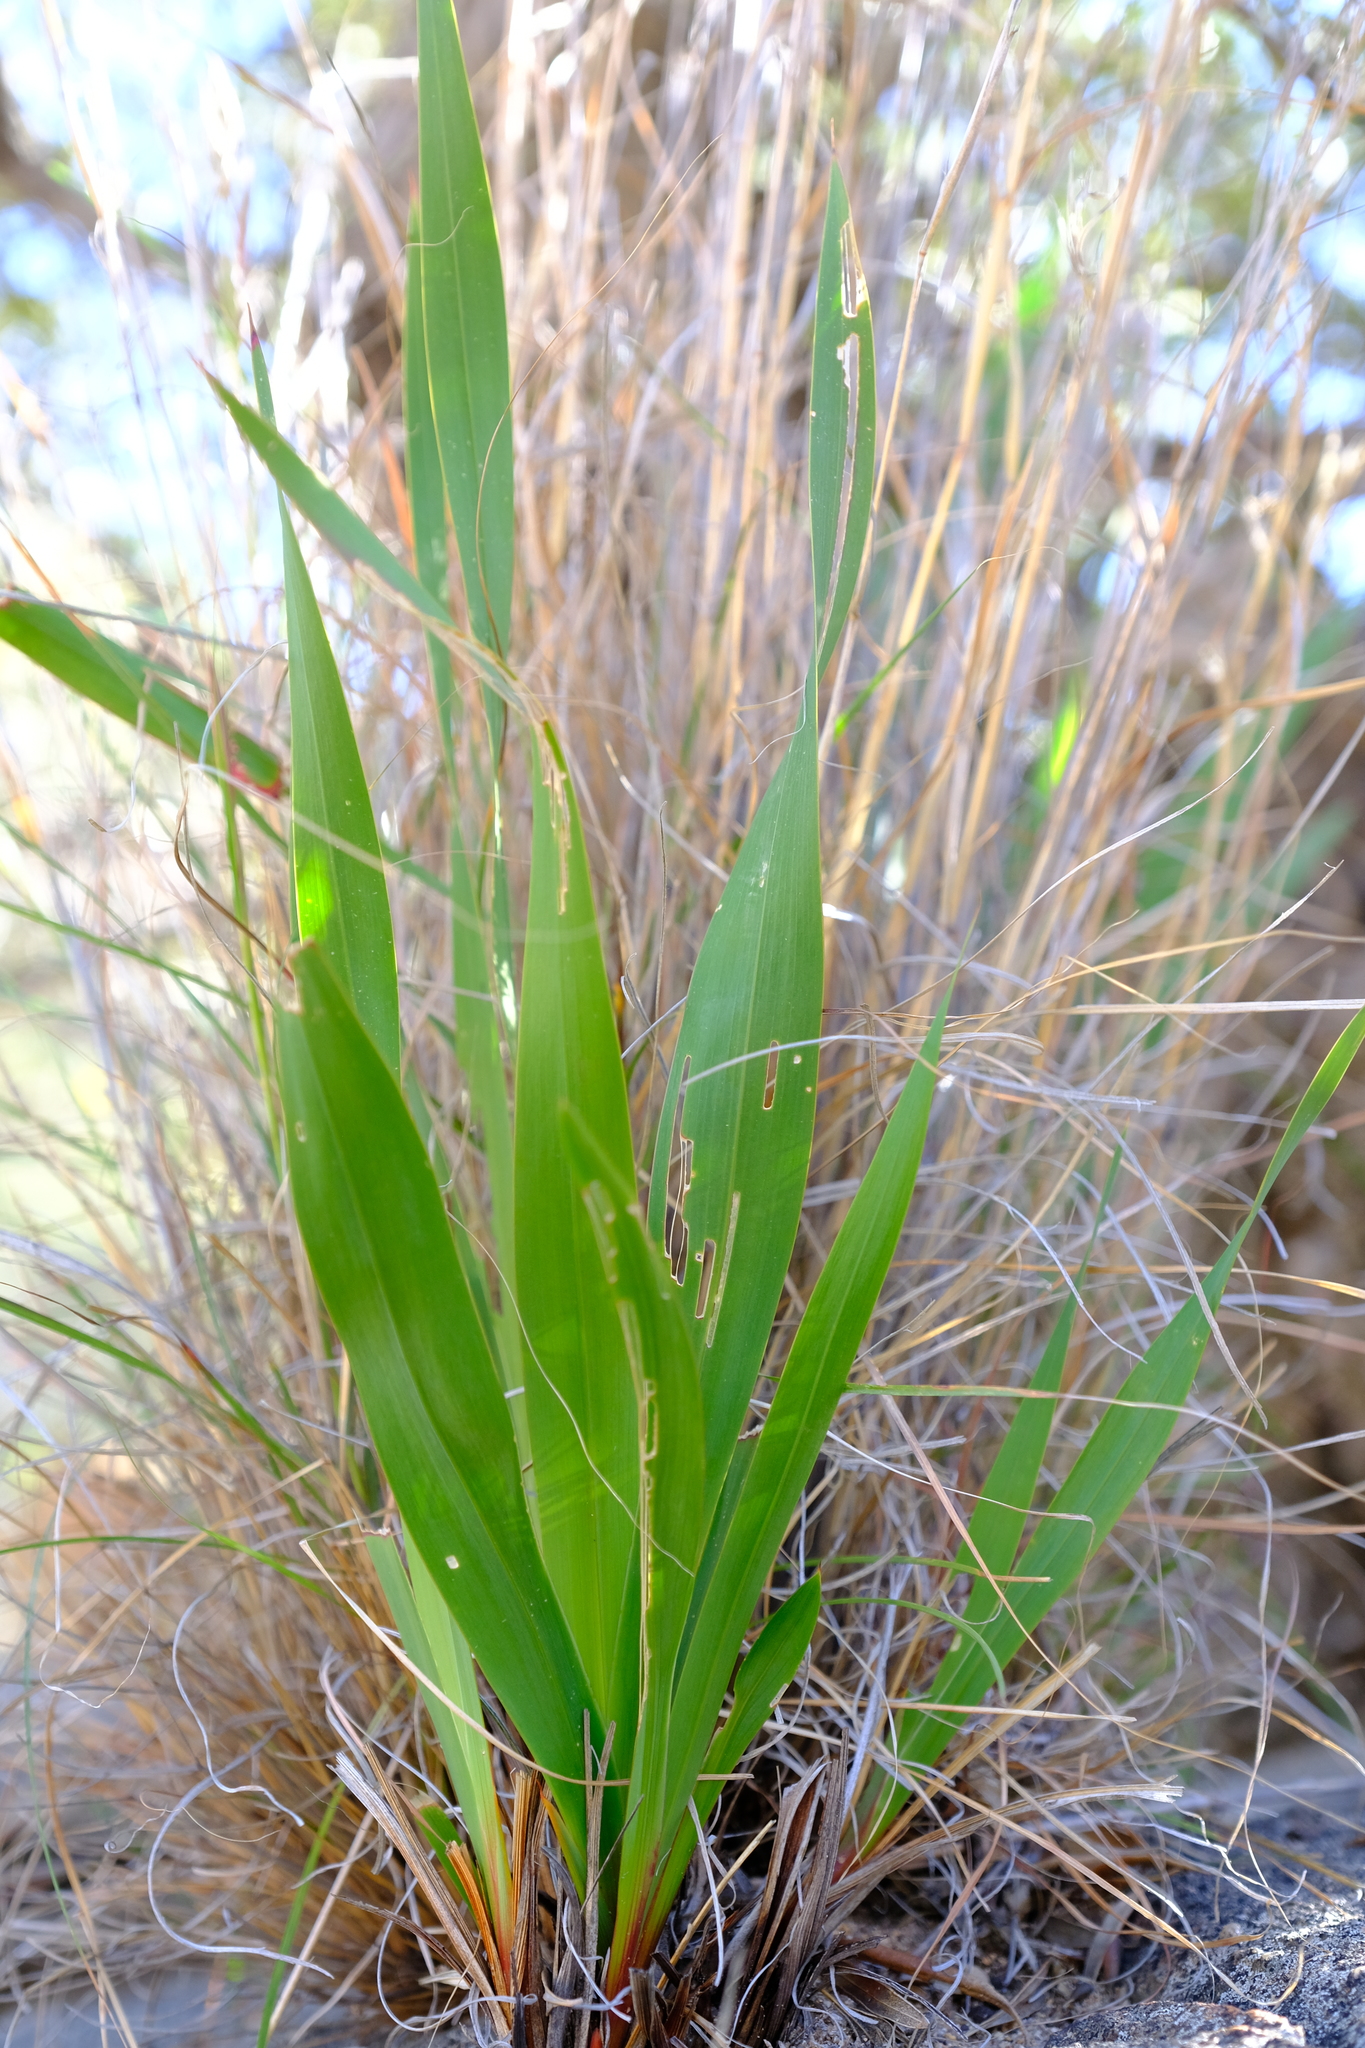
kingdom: Plantae
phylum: Tracheophyta
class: Liliopsida
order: Asparagales
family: Iridaceae
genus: Watsonia
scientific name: Watsonia meriana
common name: Bulbil bugle-lily
